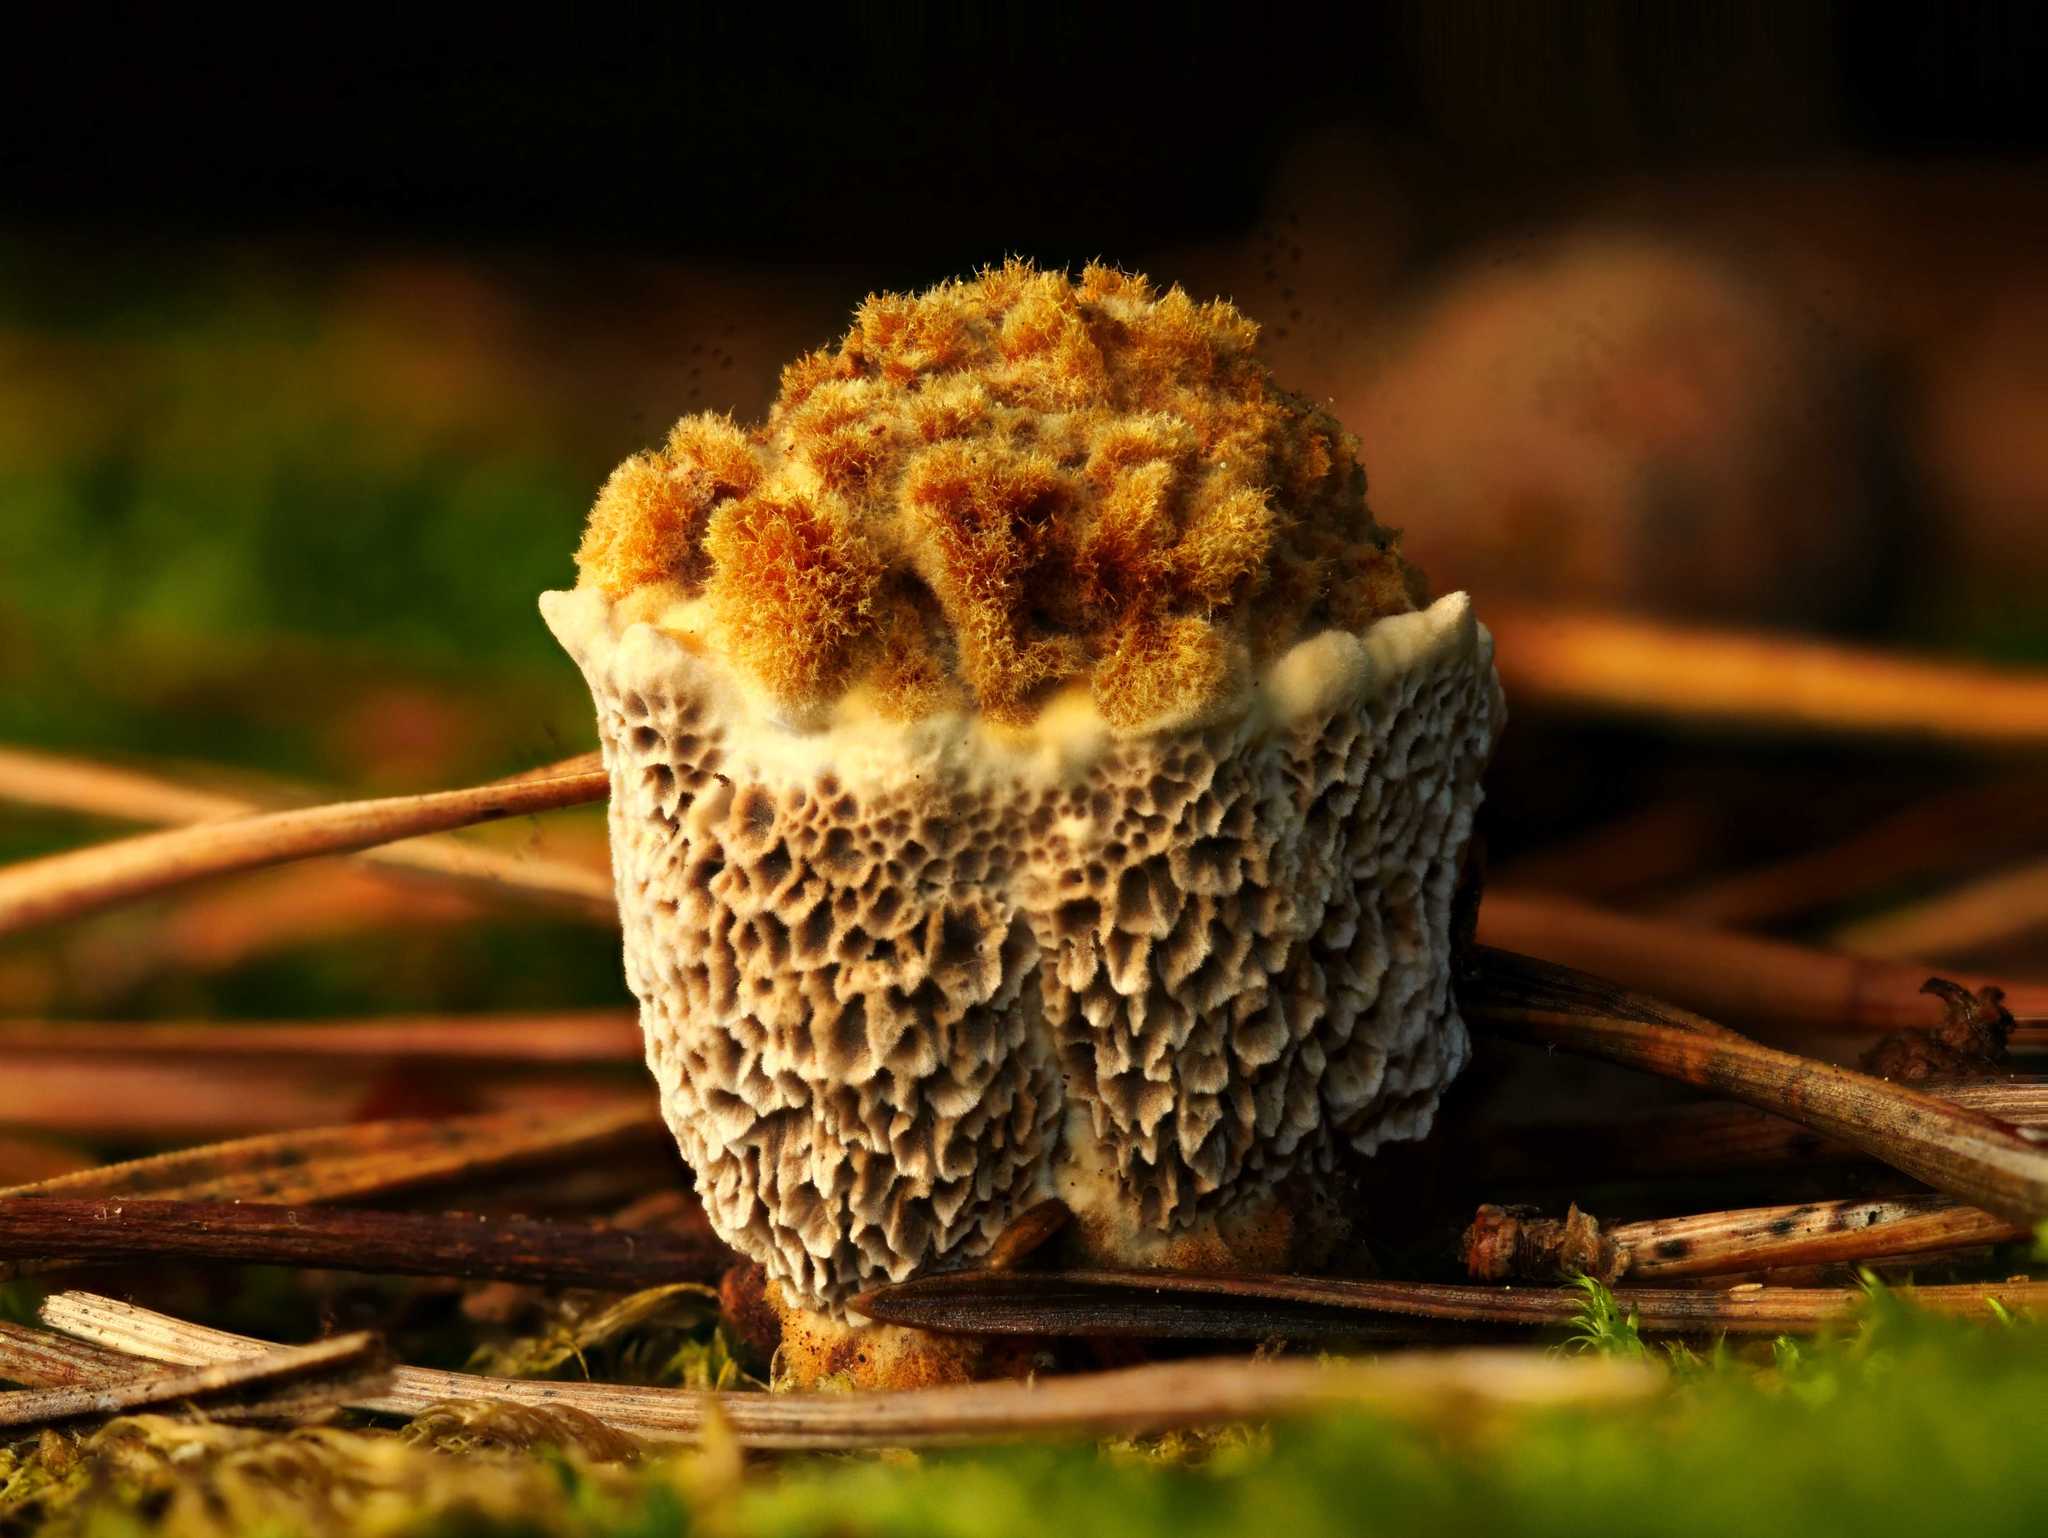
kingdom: Fungi
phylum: Basidiomycota
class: Agaricomycetes
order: Polyporales
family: Laetiporaceae
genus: Phaeolus
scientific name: Phaeolus schweinitzii
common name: Dyer's mazegill
